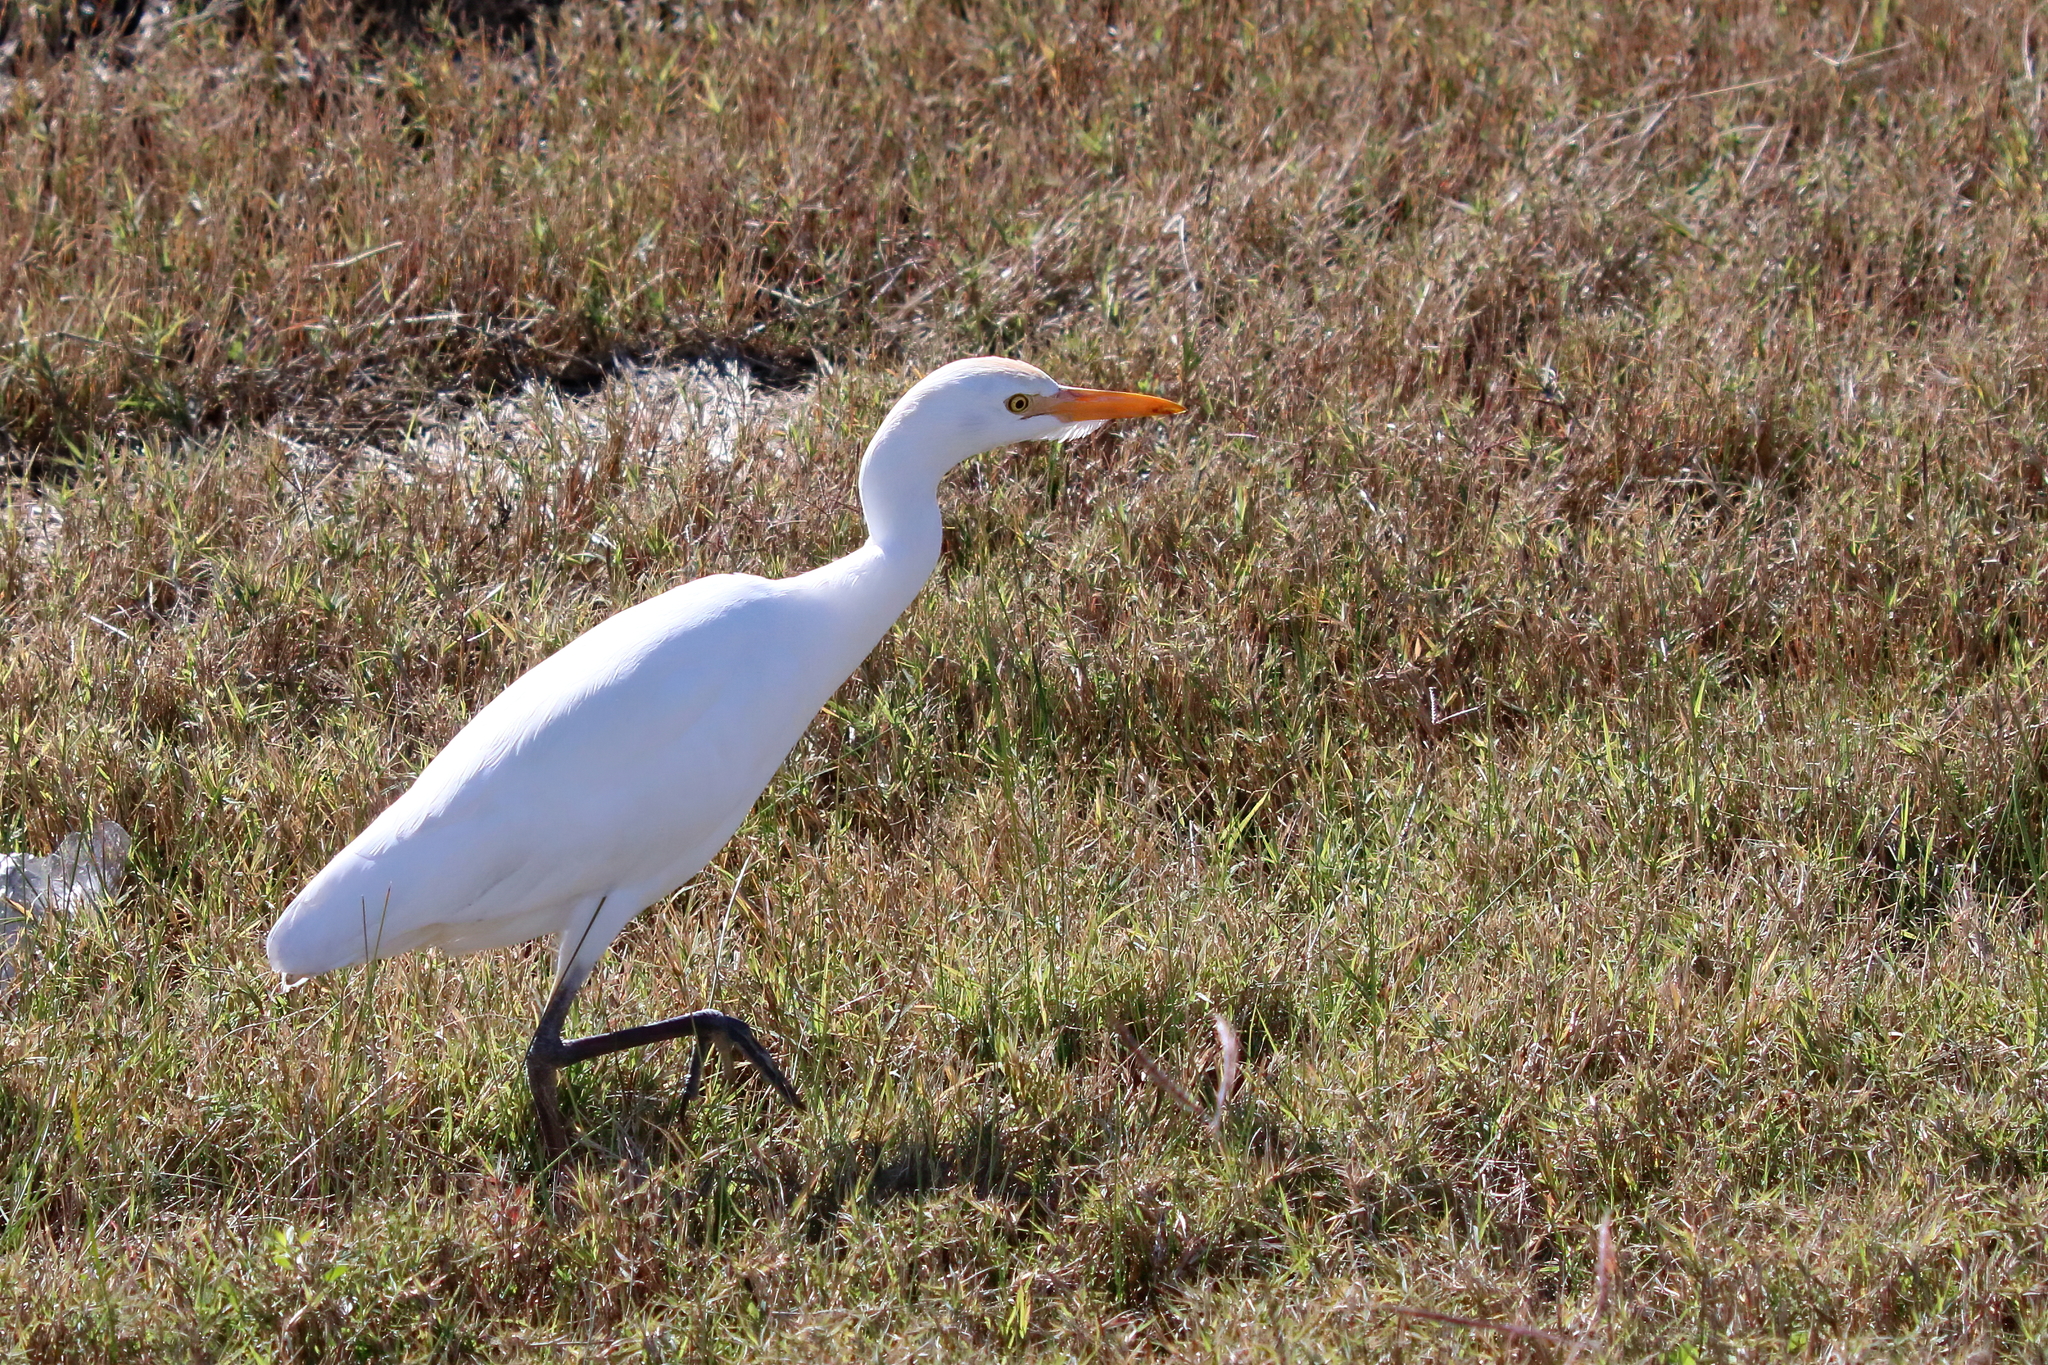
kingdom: Animalia
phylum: Chordata
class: Aves
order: Pelecaniformes
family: Ardeidae
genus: Bubulcus
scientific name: Bubulcus ibis
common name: Cattle egret
